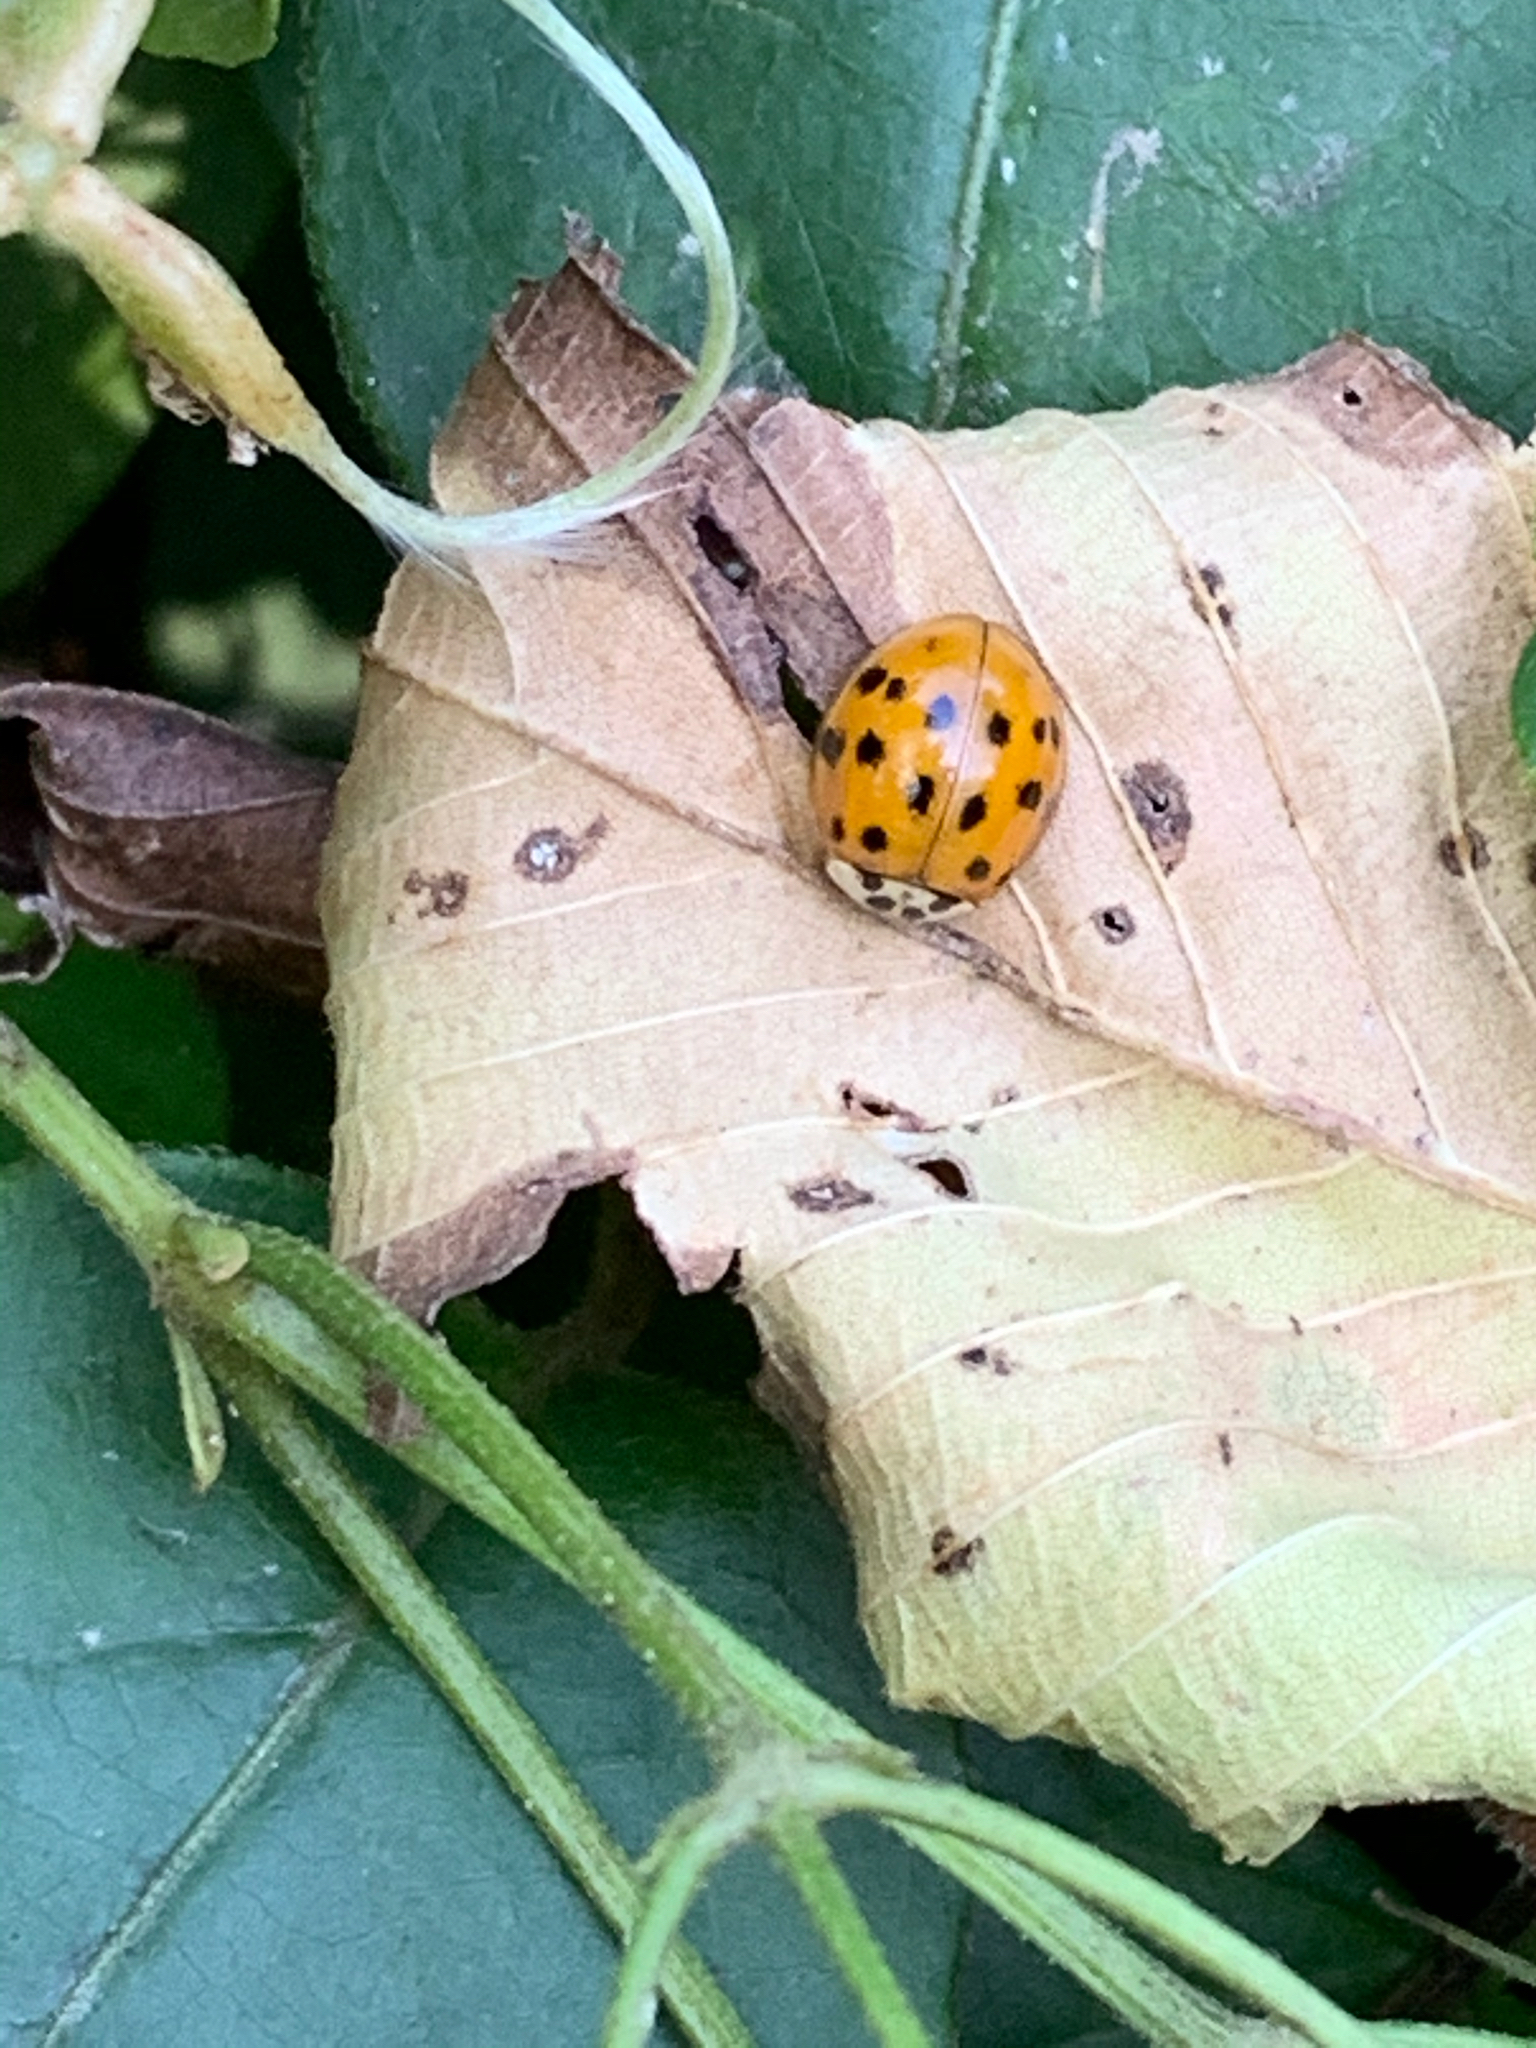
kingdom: Animalia
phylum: Arthropoda
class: Insecta
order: Coleoptera
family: Coccinellidae
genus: Harmonia
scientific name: Harmonia axyridis
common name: Harlequin ladybird
